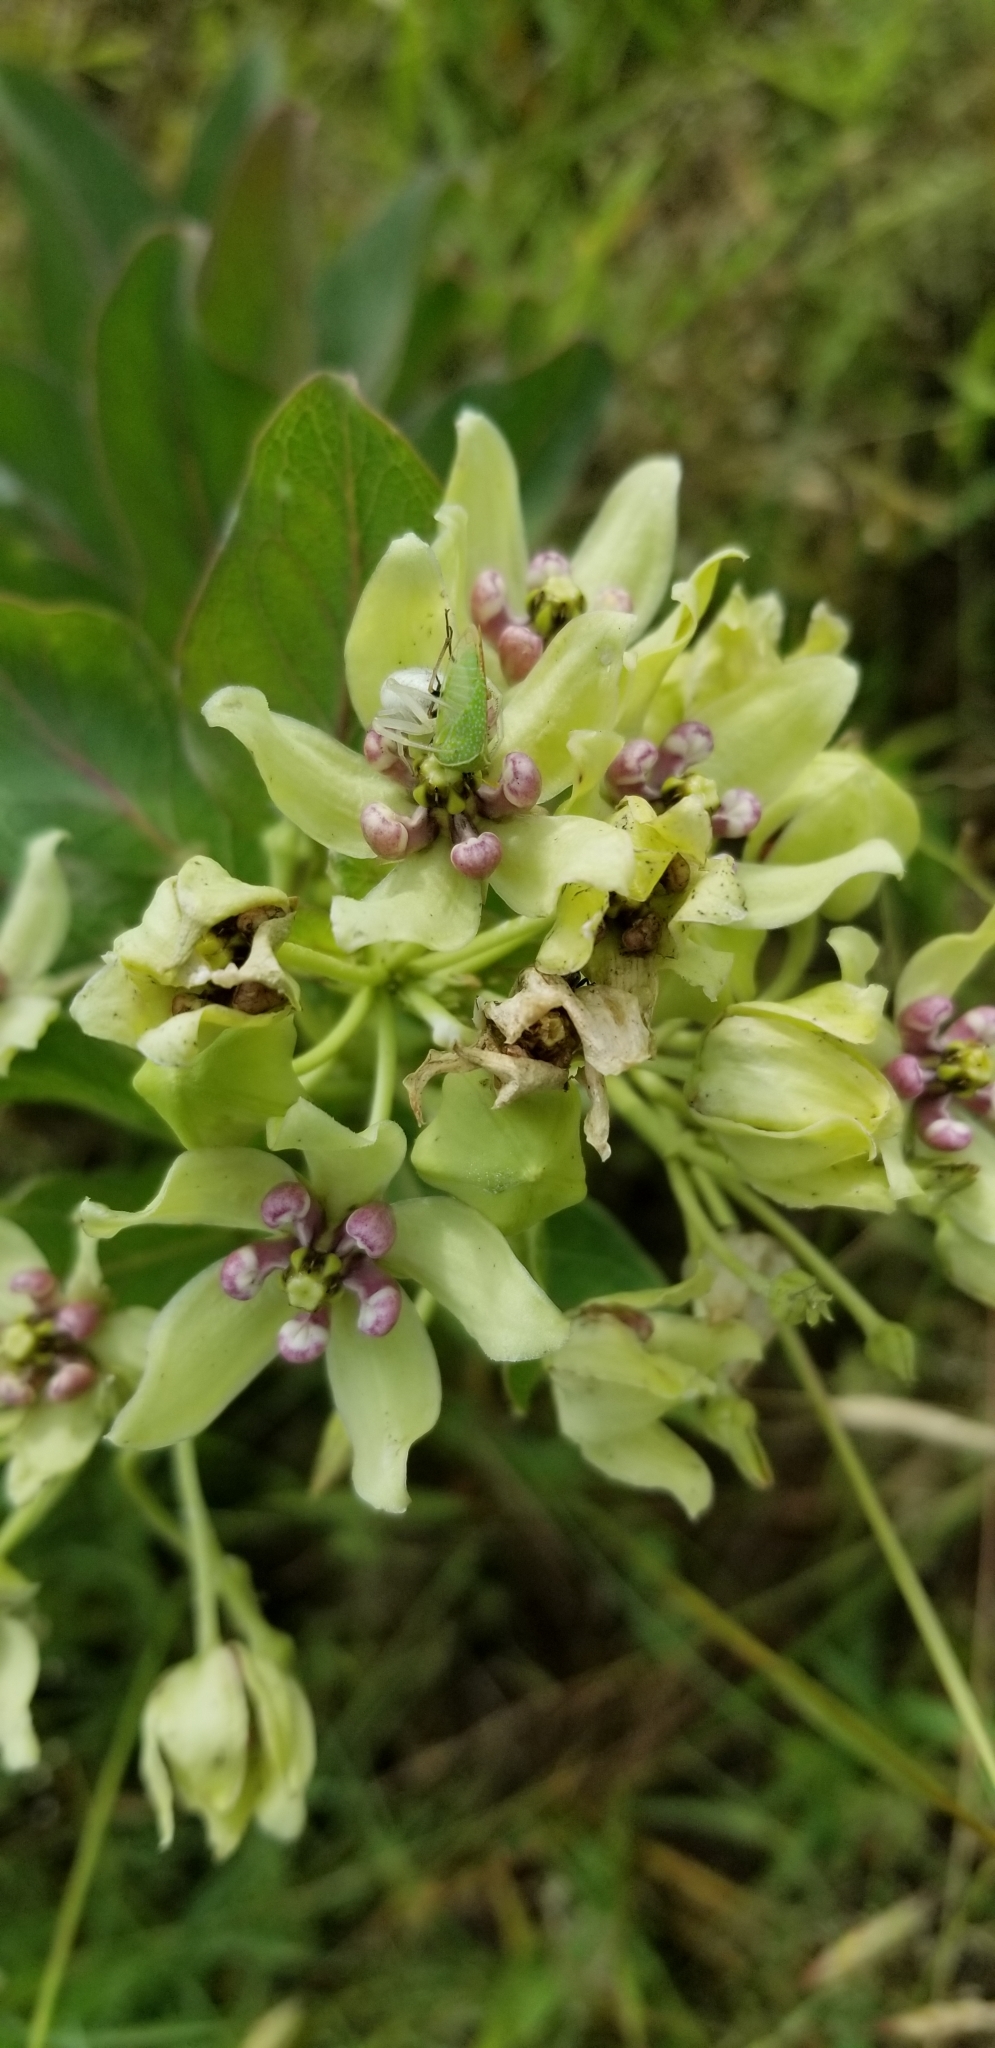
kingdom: Plantae
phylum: Tracheophyta
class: Magnoliopsida
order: Gentianales
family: Apocynaceae
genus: Asclepias
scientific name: Asclepias viridis
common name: Antelope-horns
